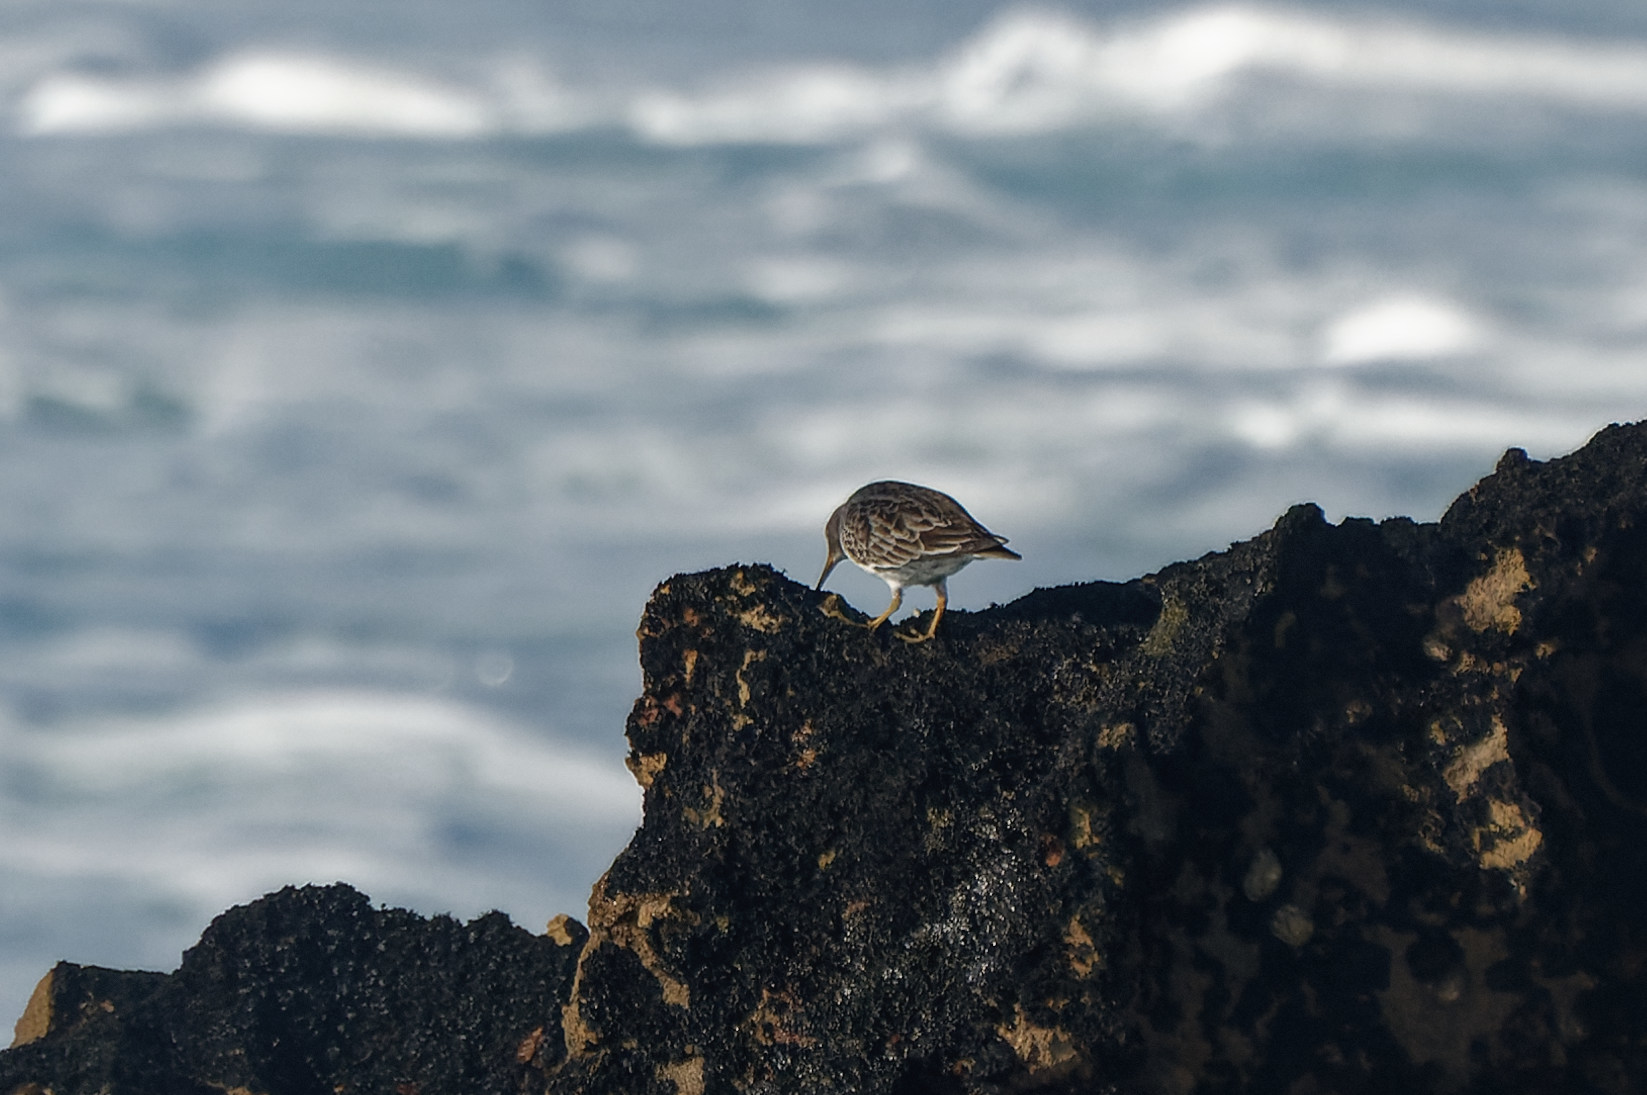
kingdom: Animalia
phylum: Chordata
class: Aves
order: Charadriiformes
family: Scolopacidae
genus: Calidris
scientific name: Calidris maritima
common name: Purple sandpiper
